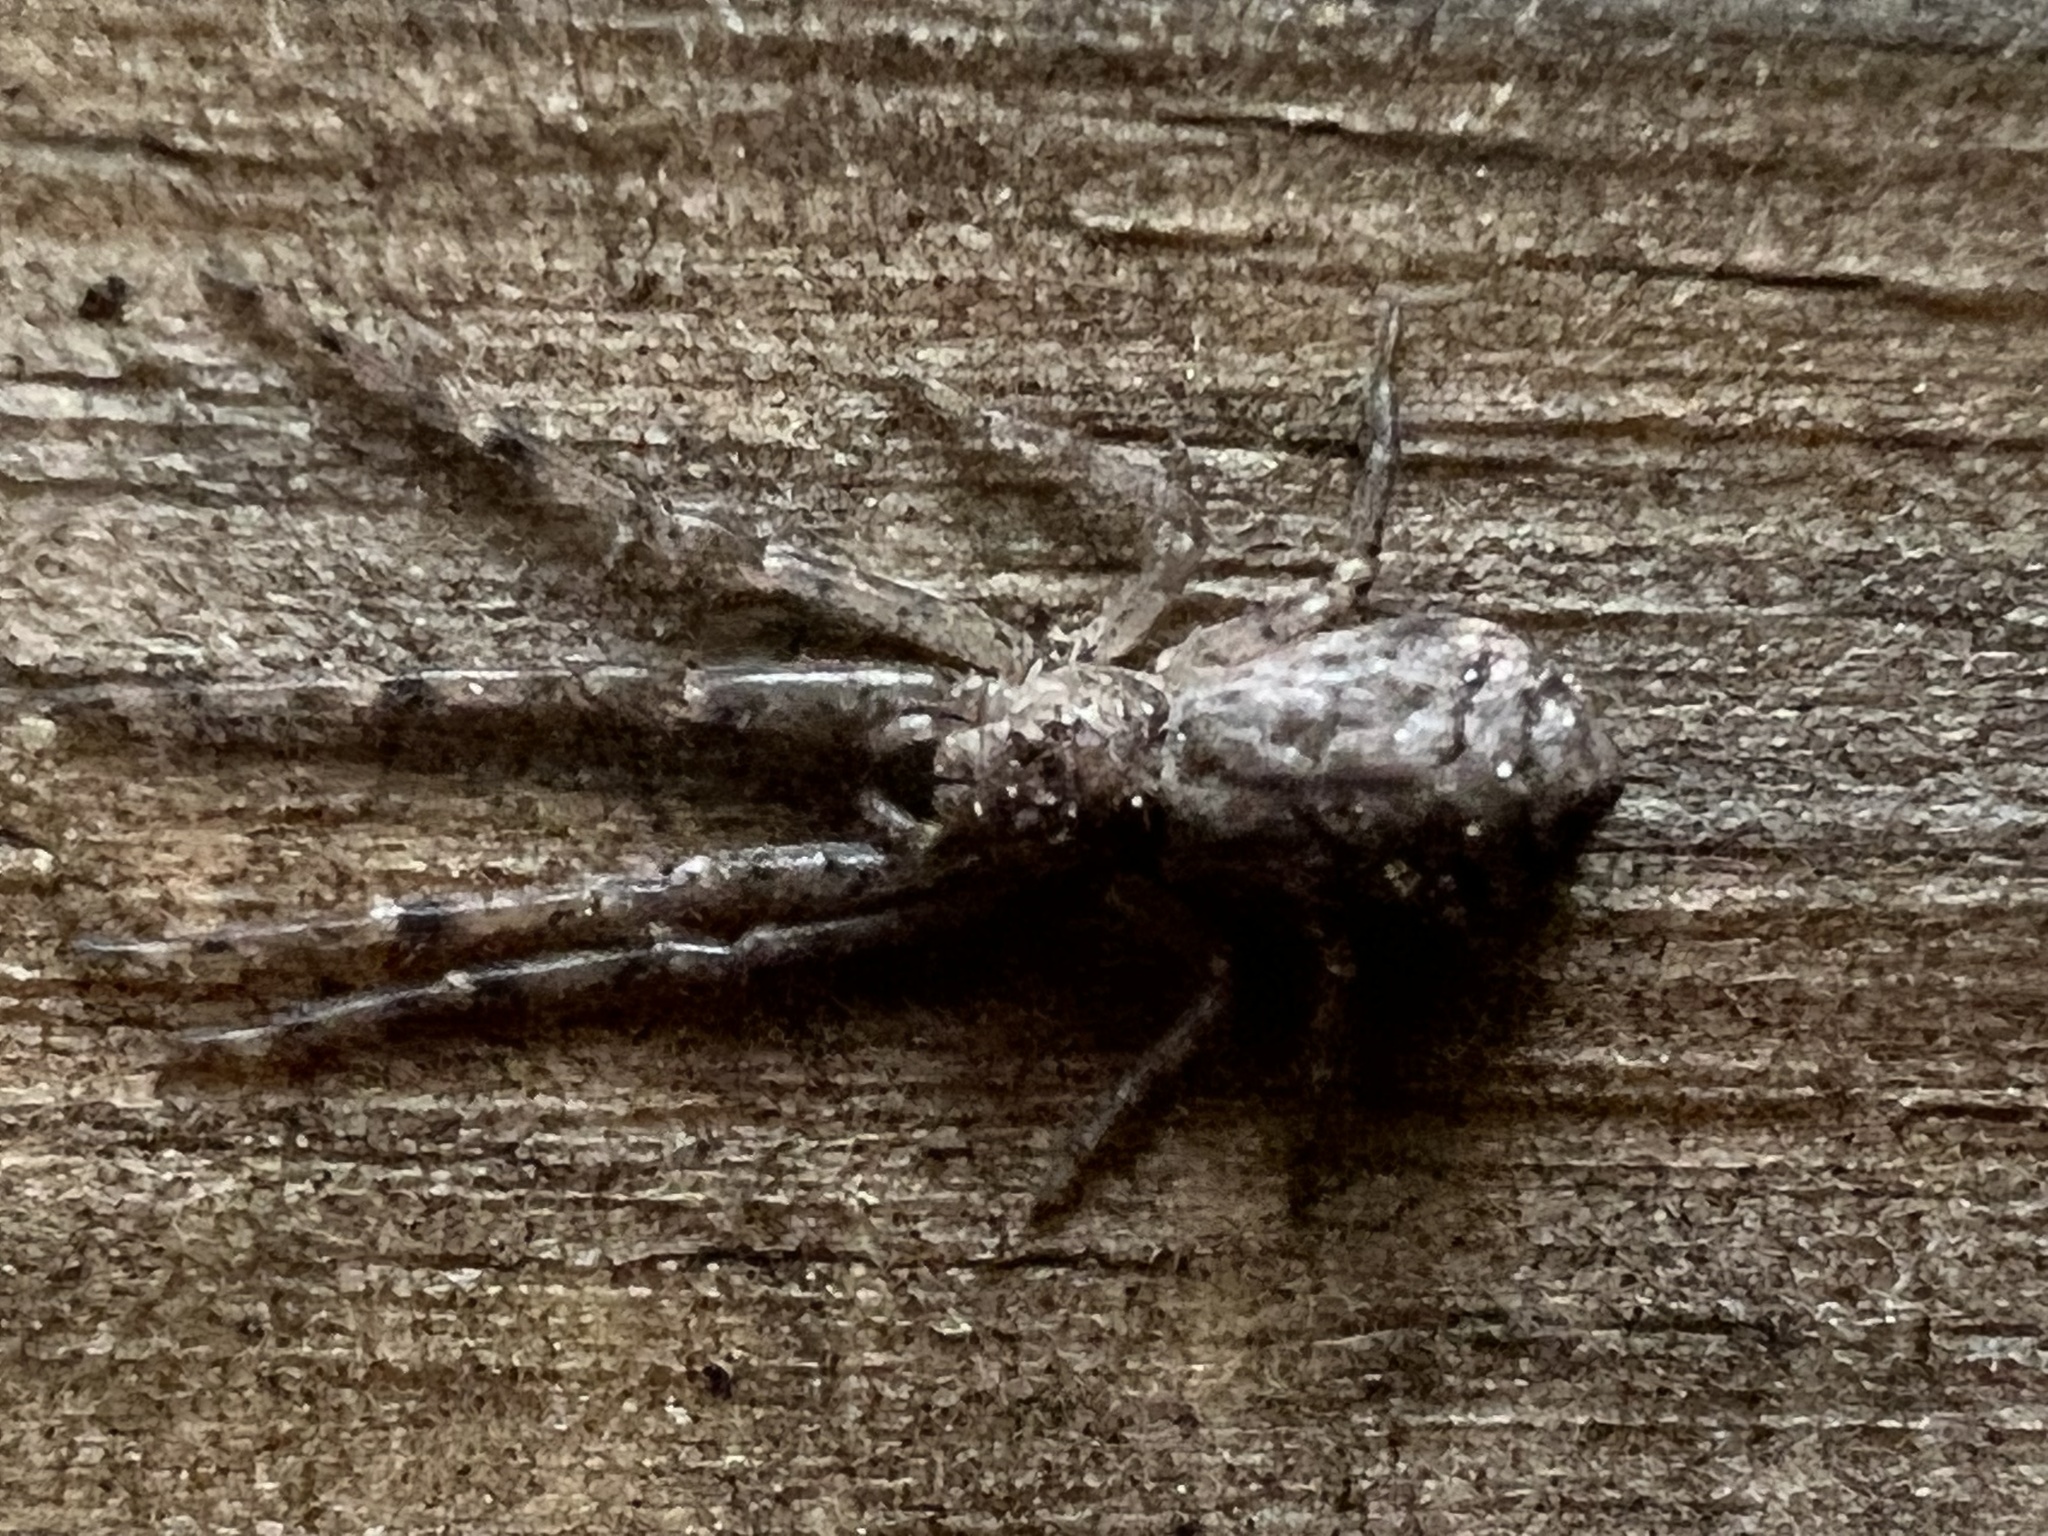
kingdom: Animalia
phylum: Arthropoda
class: Arachnida
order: Araneae
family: Thomisidae
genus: Tmarus
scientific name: Tmarus angulatus
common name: Tuberculated crab spider
